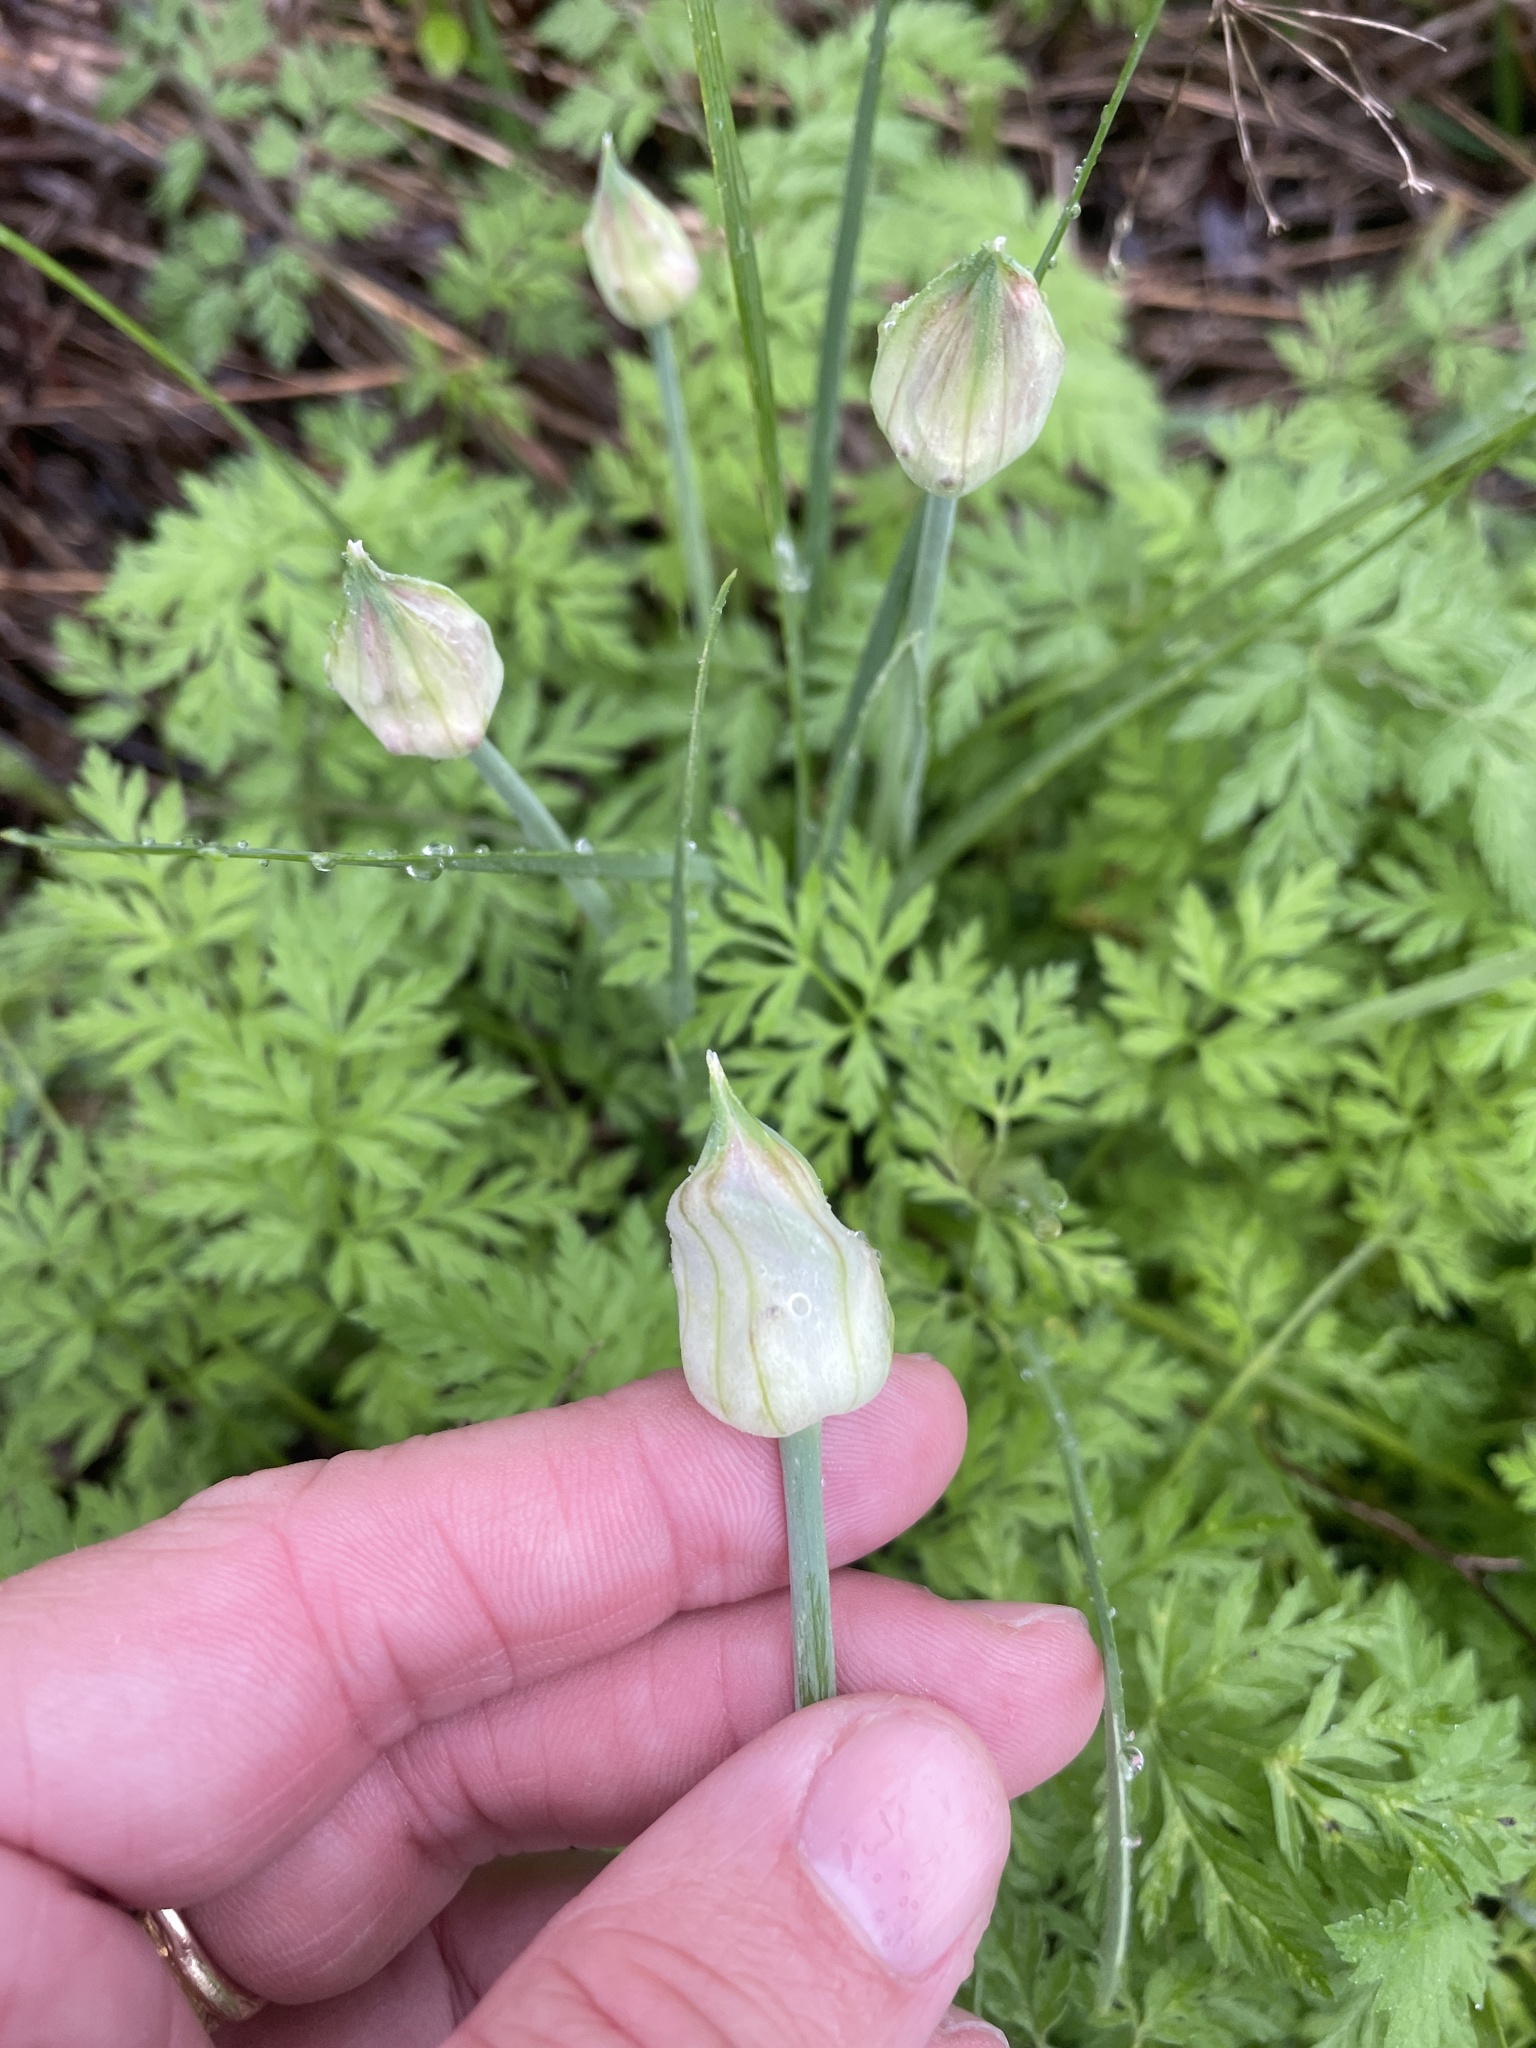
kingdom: Plantae
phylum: Tracheophyta
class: Liliopsida
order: Asparagales
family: Amaryllidaceae
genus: Allium
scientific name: Allium canadense
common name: Meadow garlic
